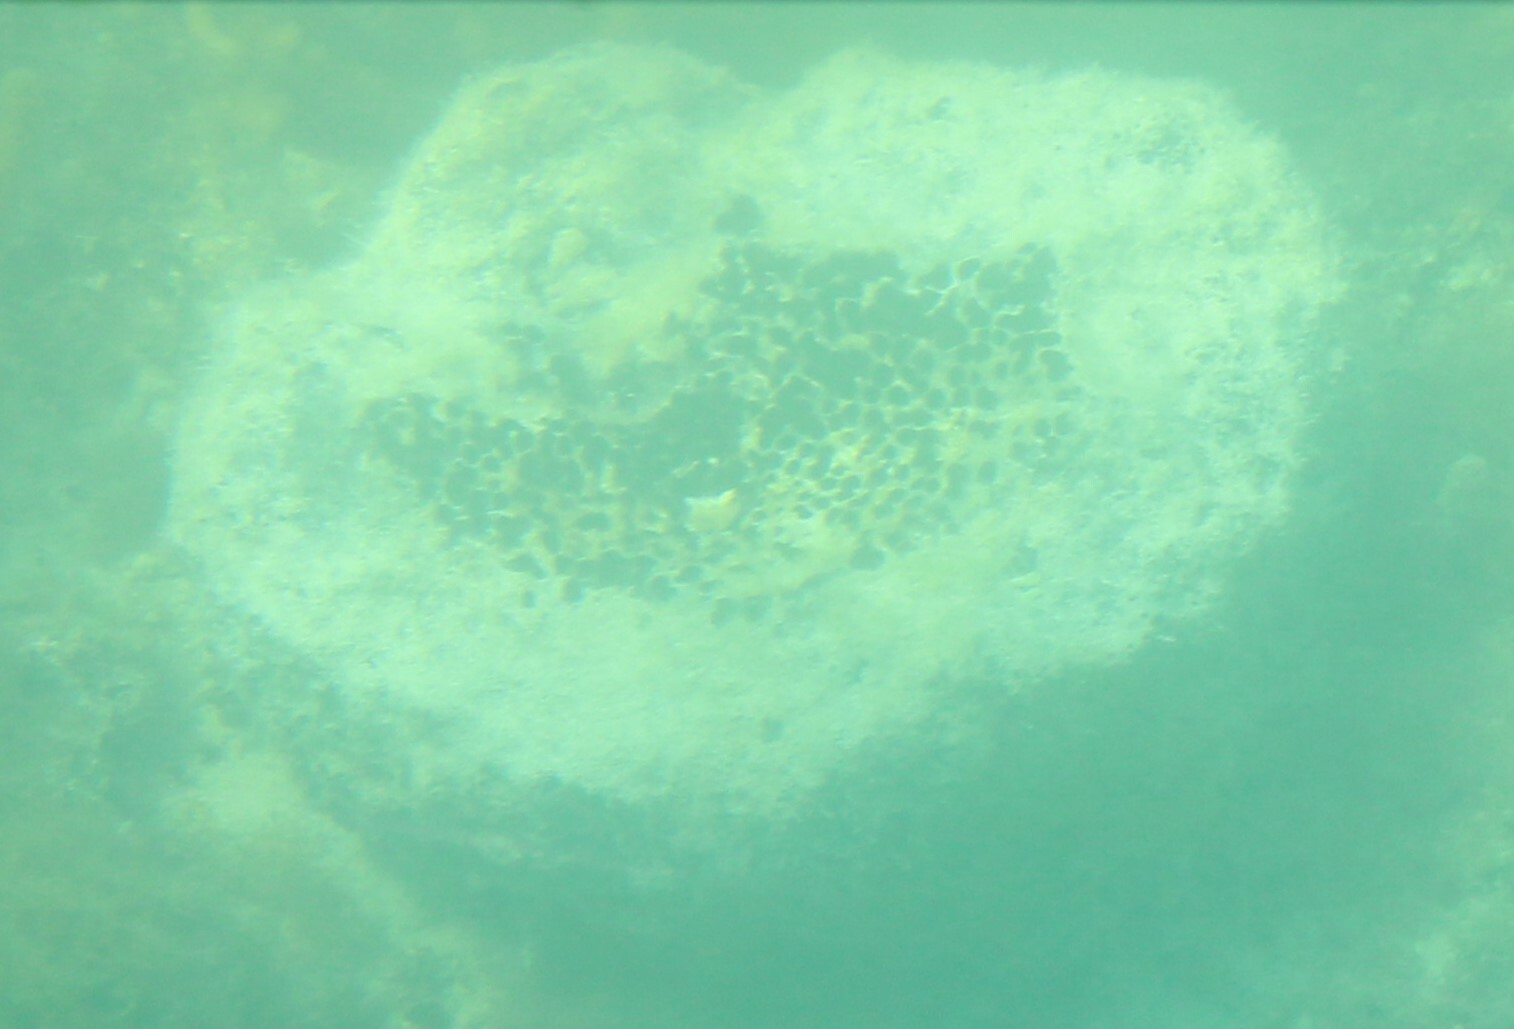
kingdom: Animalia
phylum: Porifera
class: Demospongiae
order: Clionaida
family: Clionaidae
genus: Spheciospongia
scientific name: Spheciospongia vesparium
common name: Manjack
